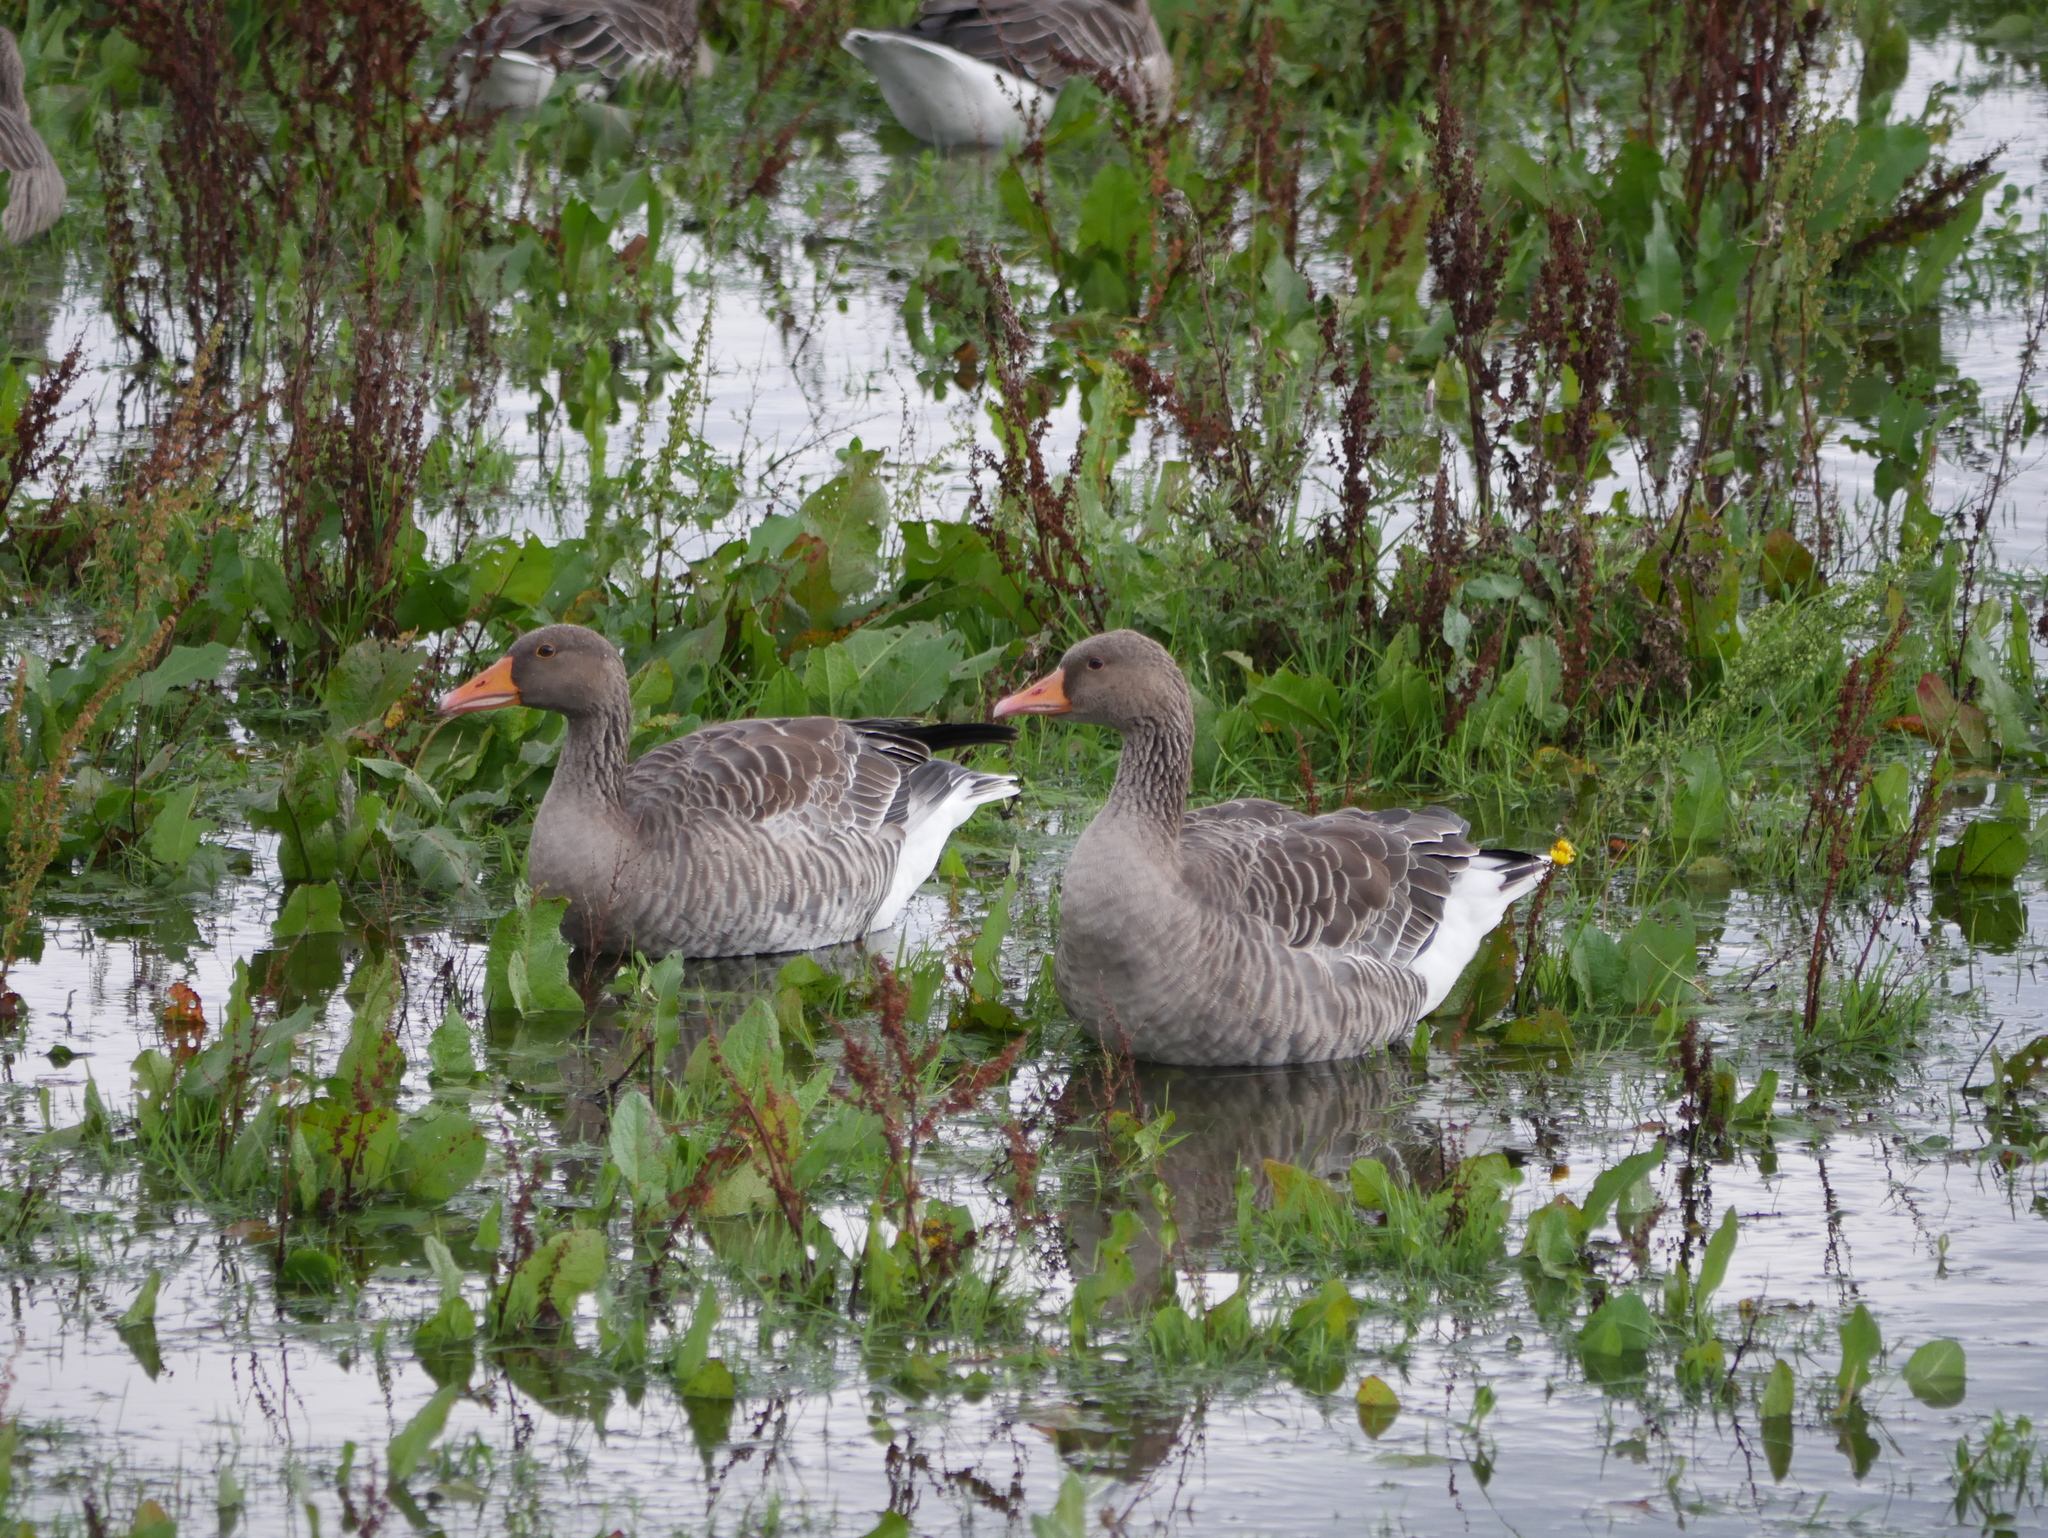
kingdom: Animalia
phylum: Chordata
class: Aves
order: Anseriformes
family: Anatidae
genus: Anser
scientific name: Anser anser
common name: Greylag goose
